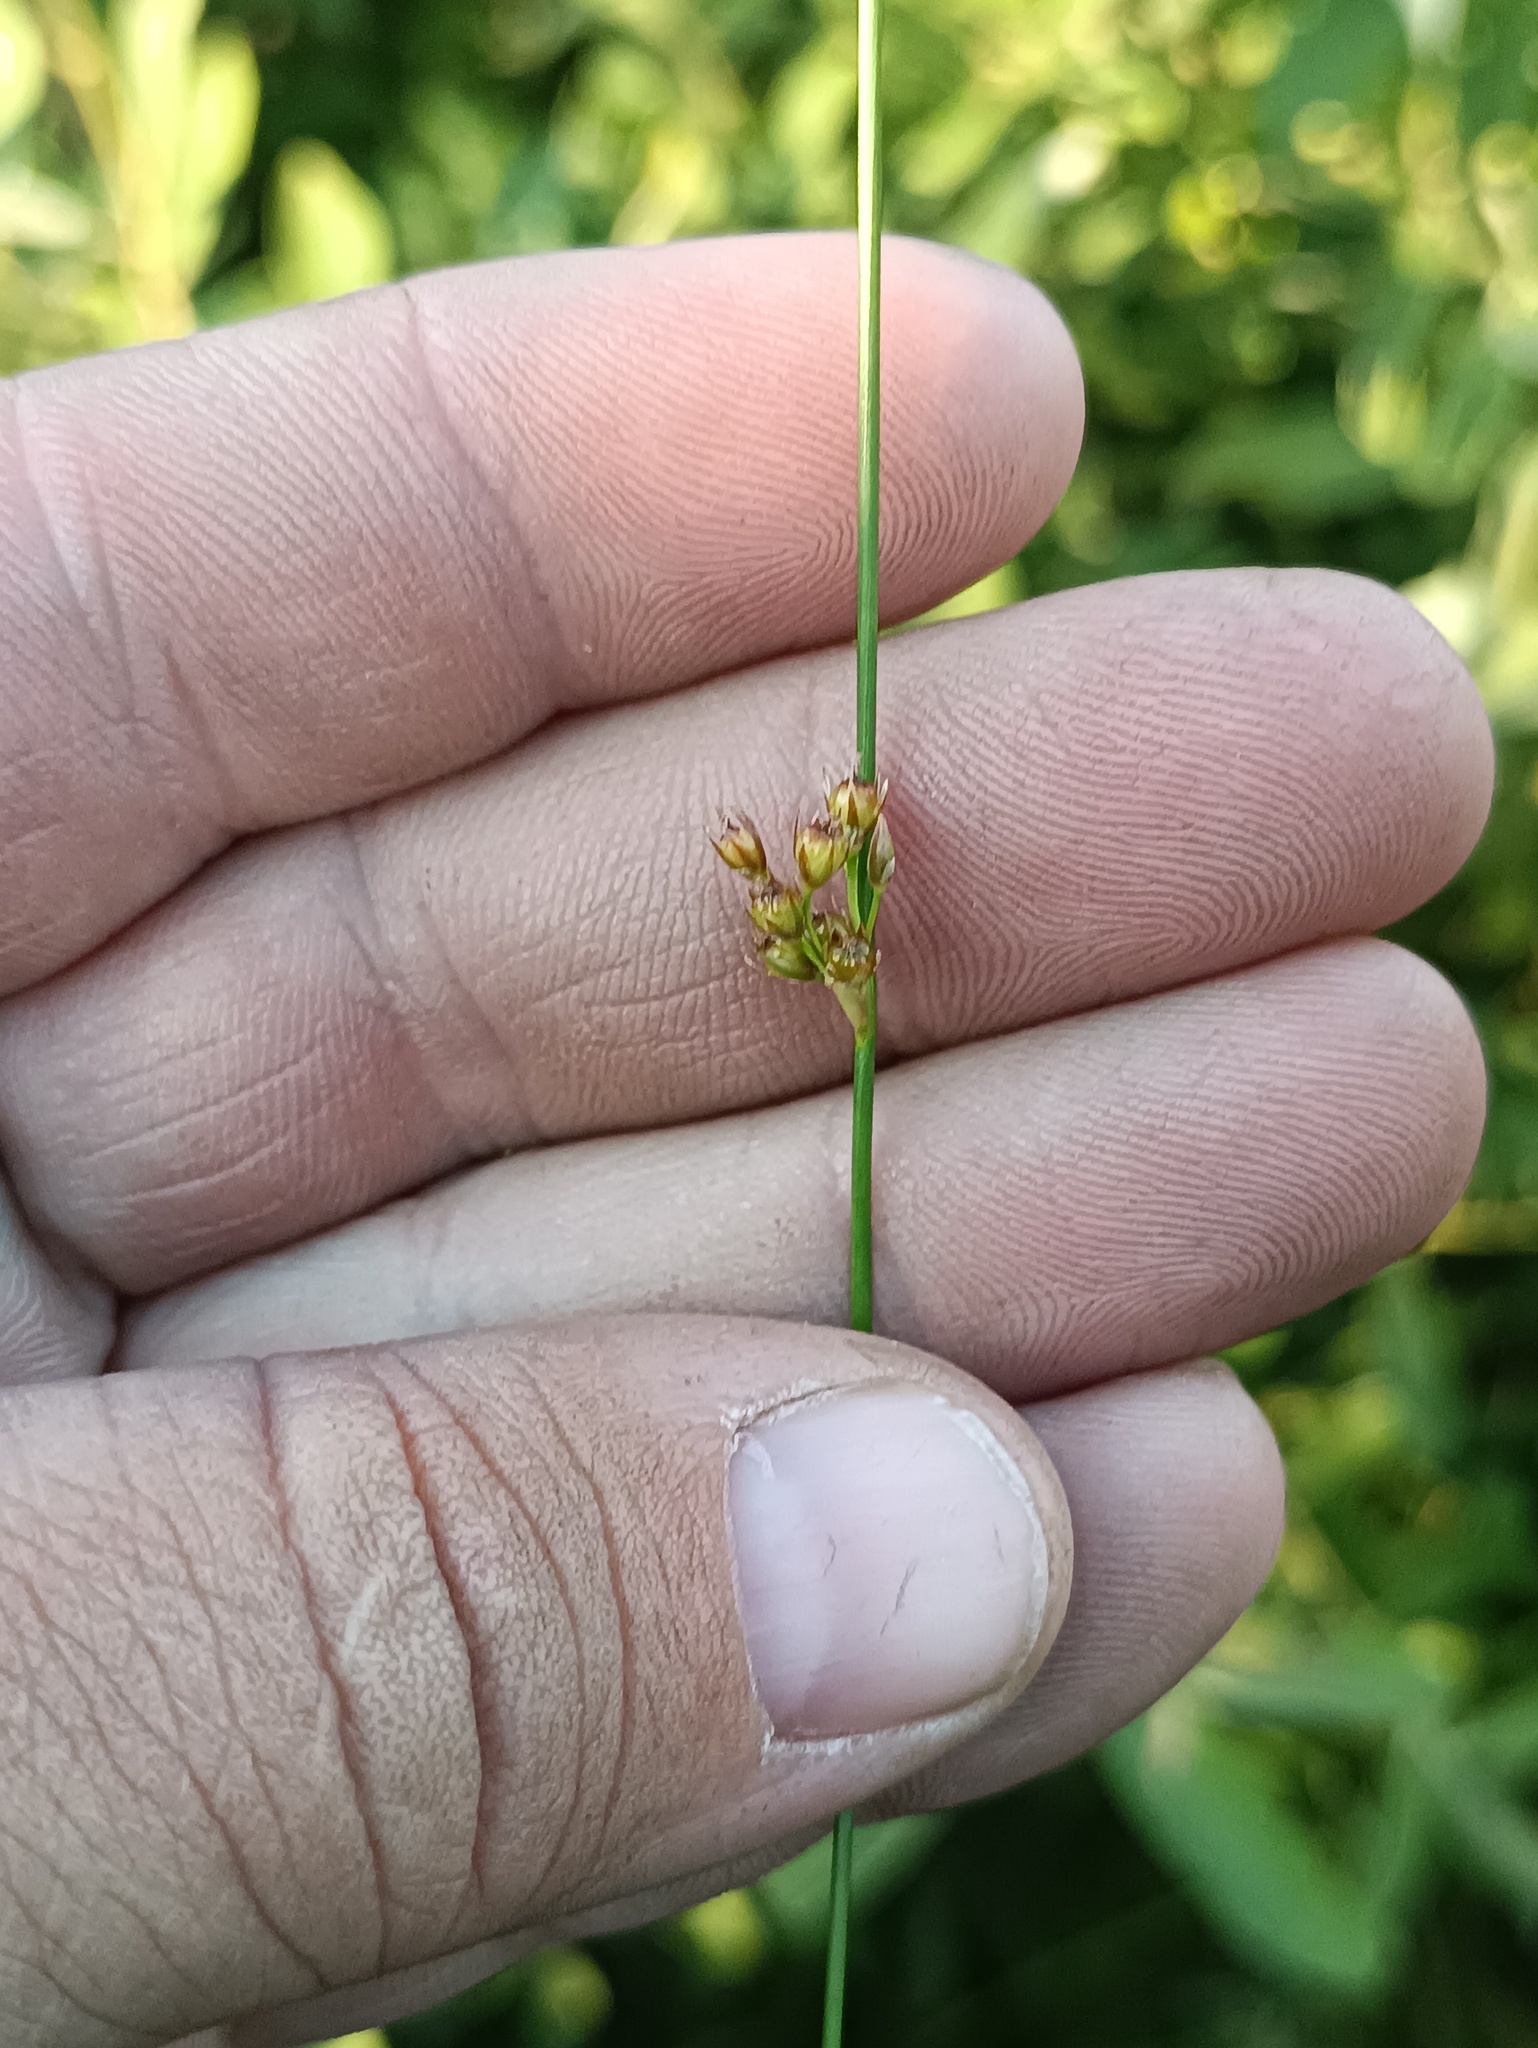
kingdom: Plantae
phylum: Tracheophyta
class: Liliopsida
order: Poales
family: Juncaceae
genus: Juncus
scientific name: Juncus filiformis
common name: Thread rush
